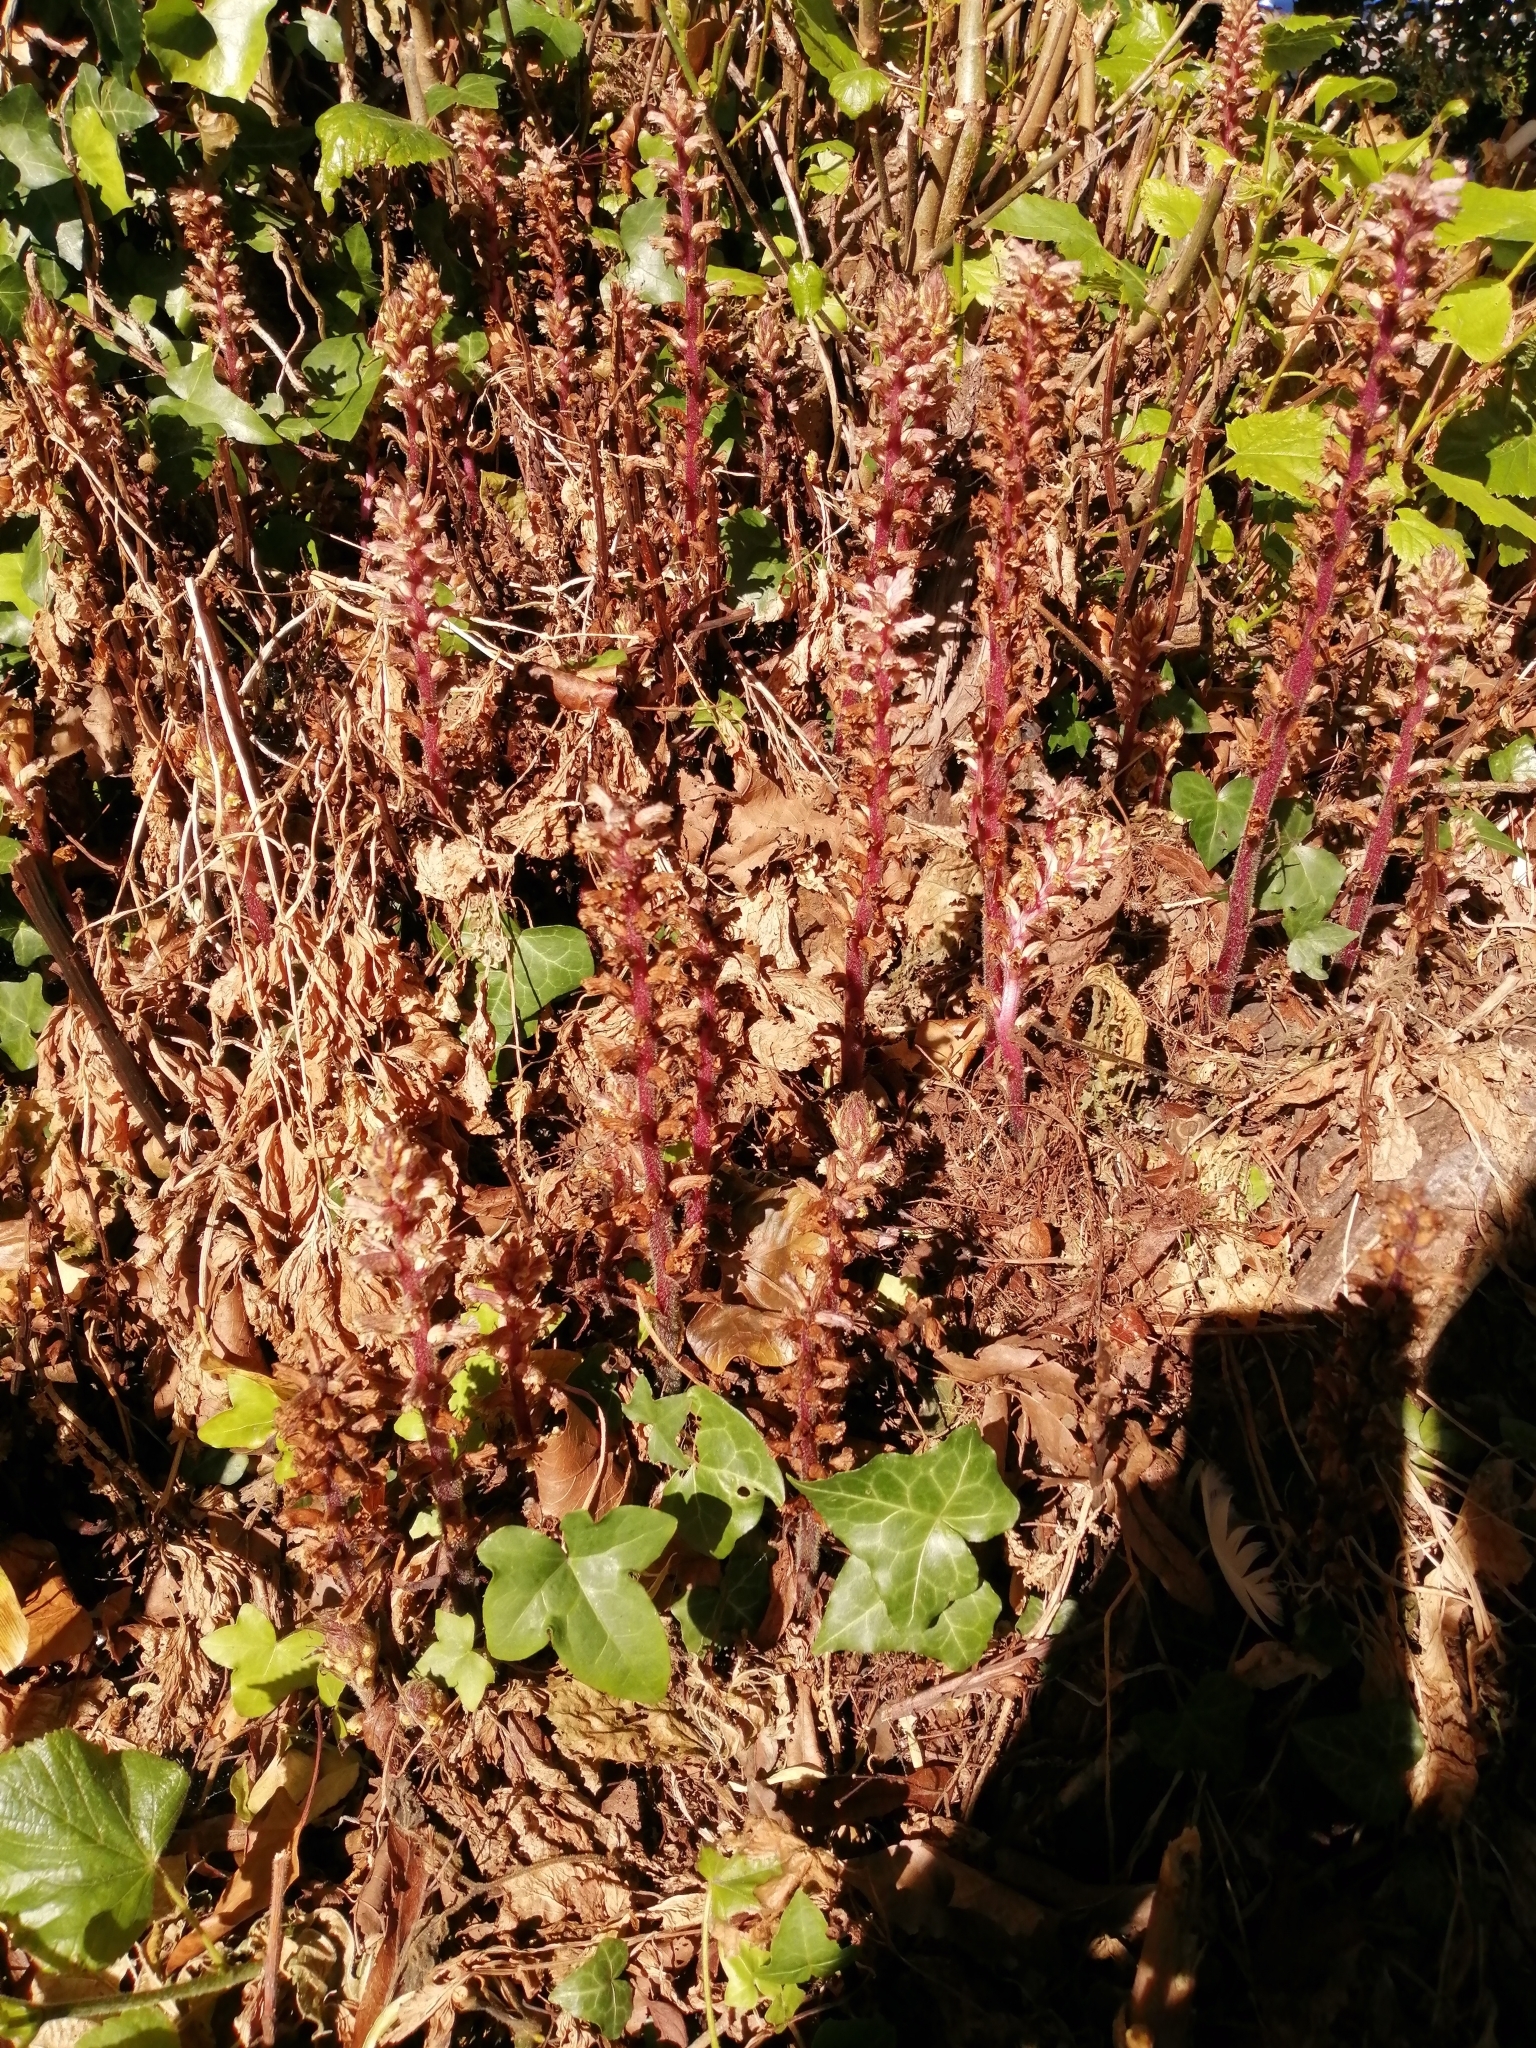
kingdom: Plantae
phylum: Tracheophyta
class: Magnoliopsida
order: Lamiales
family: Orobanchaceae
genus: Orobanche
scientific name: Orobanche hederae
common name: Ivy broomrape
